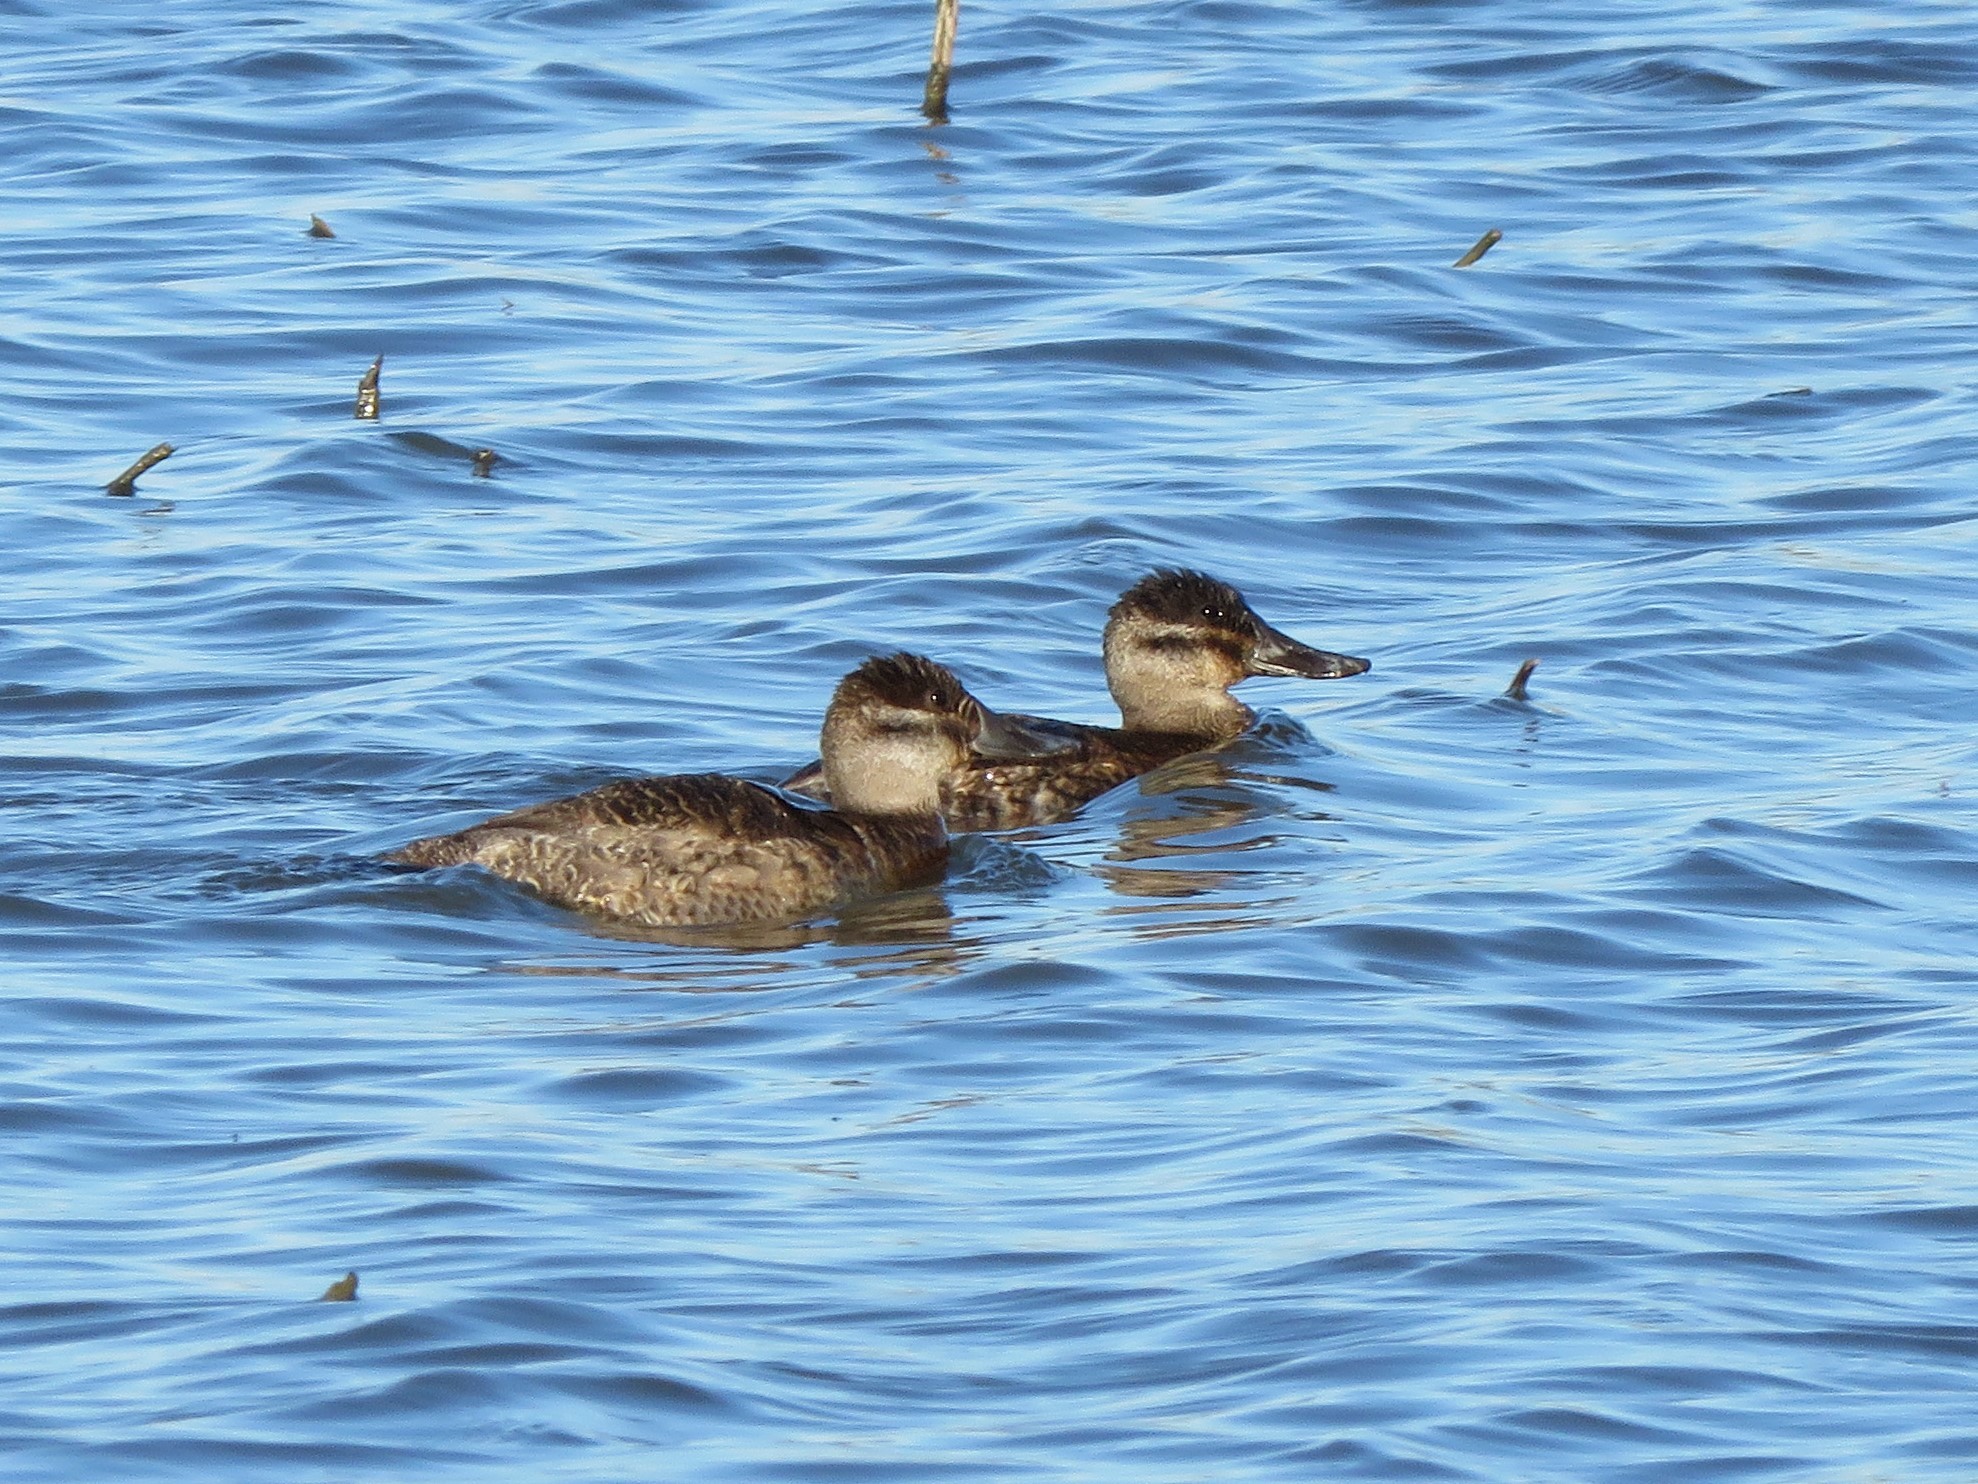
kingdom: Animalia
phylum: Chordata
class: Aves
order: Anseriformes
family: Anatidae
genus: Oxyura
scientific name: Oxyura jamaicensis
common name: Ruddy duck
